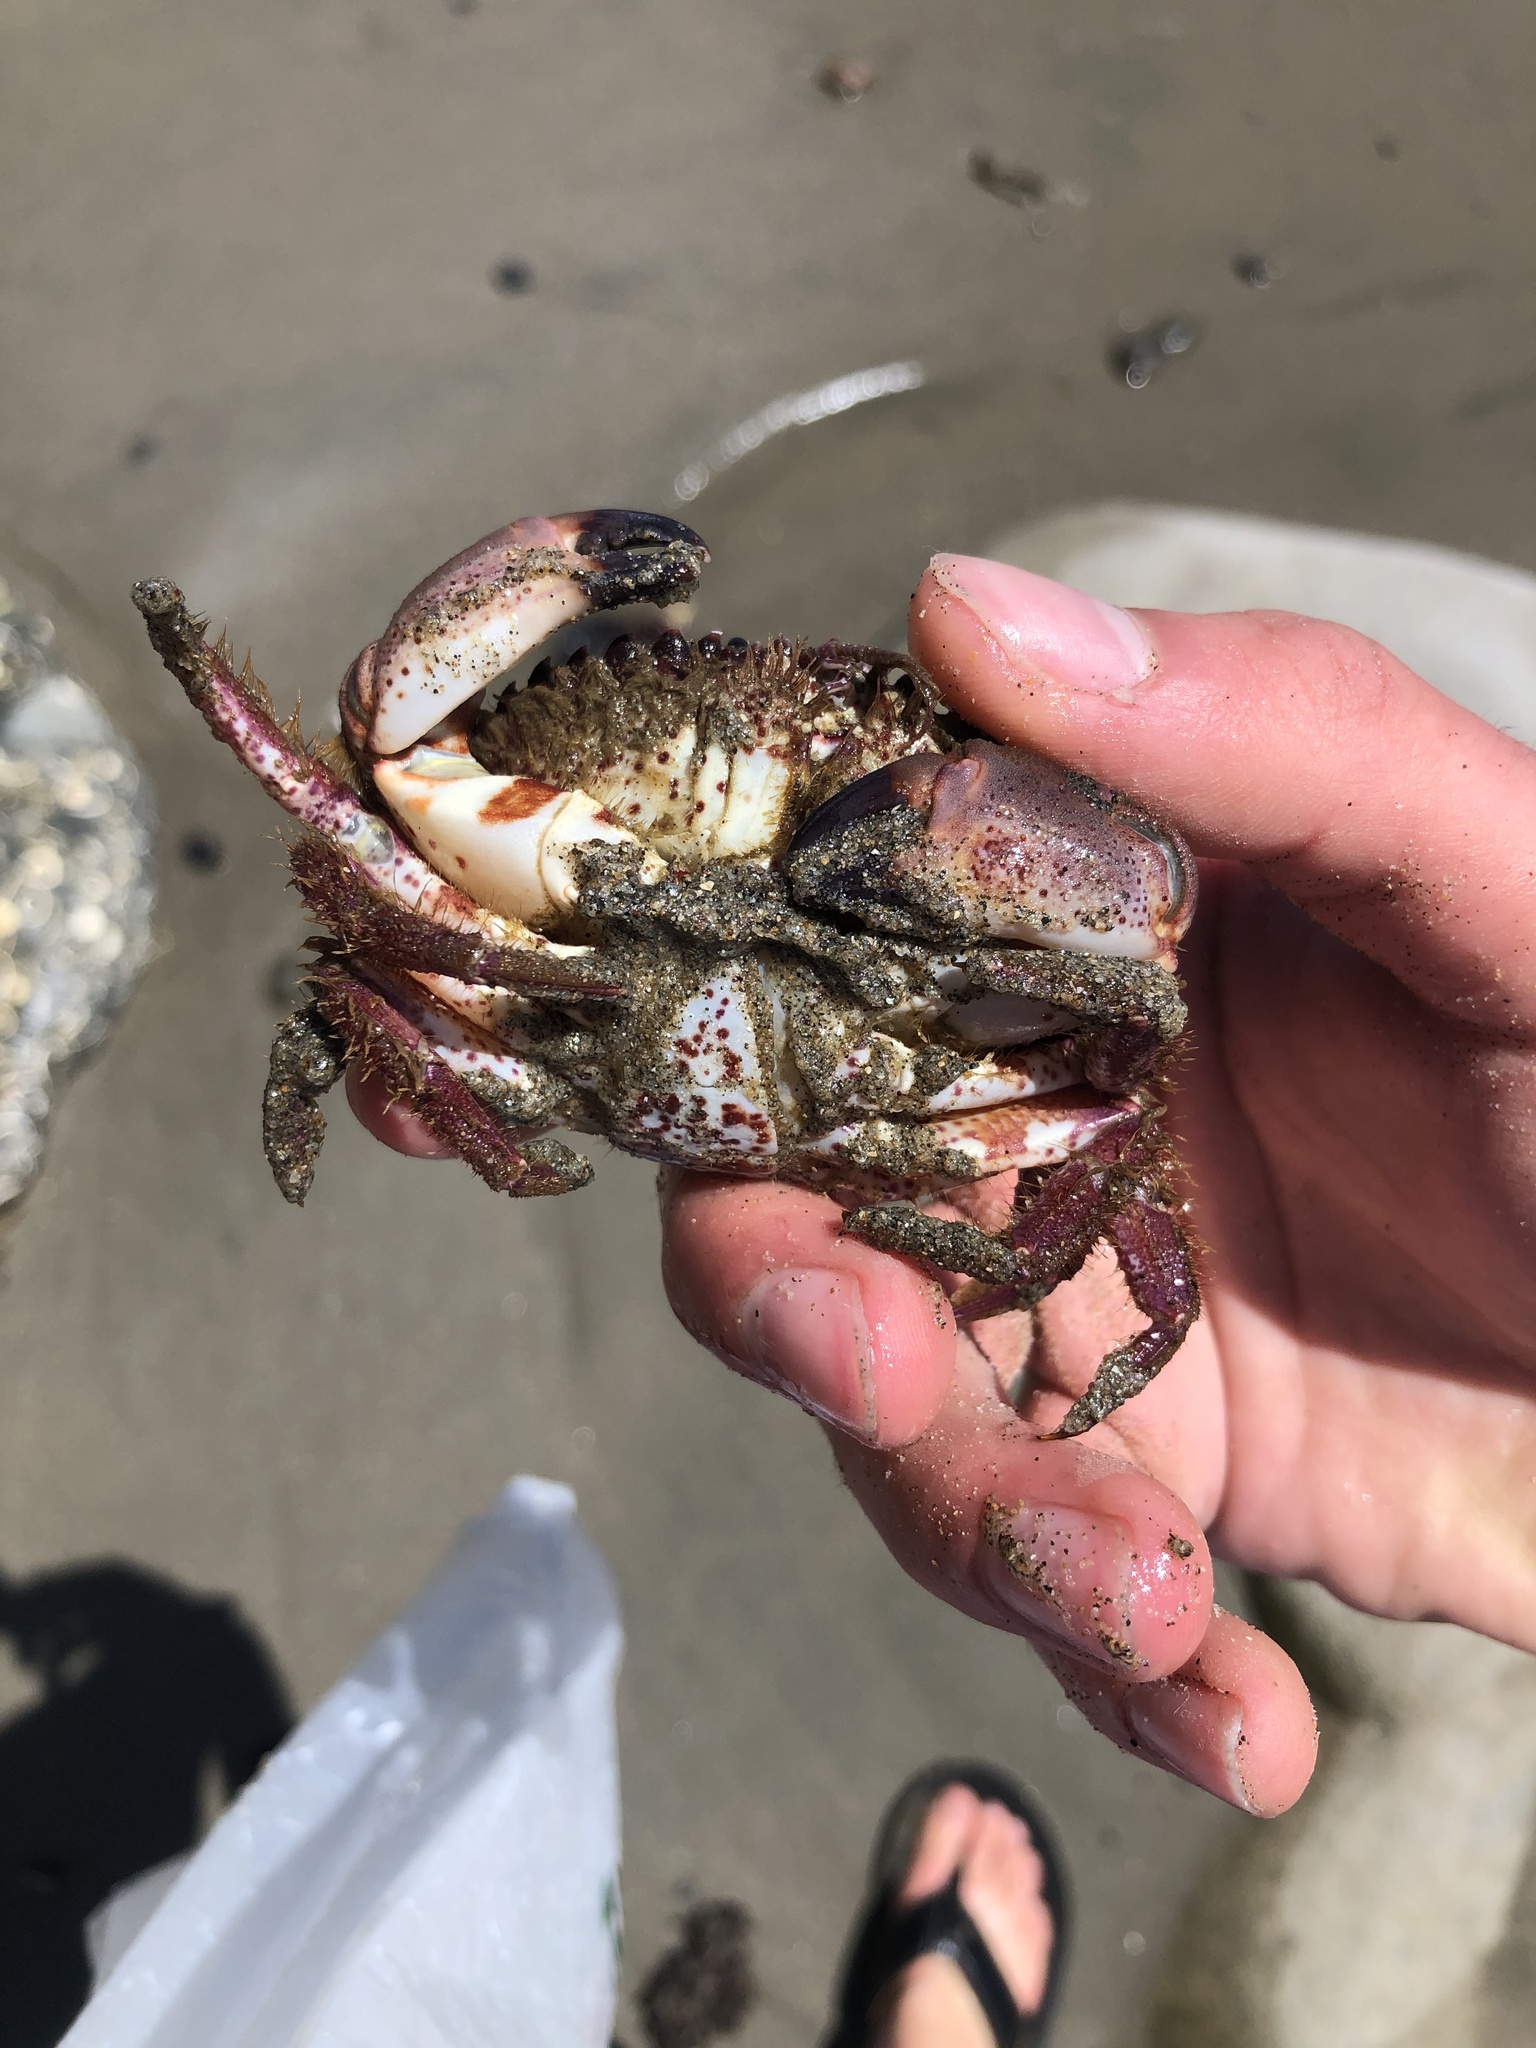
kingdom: Animalia
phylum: Arthropoda
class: Malacostraca
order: Decapoda
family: Cancridae
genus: Romaleon
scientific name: Romaleon antennarium
